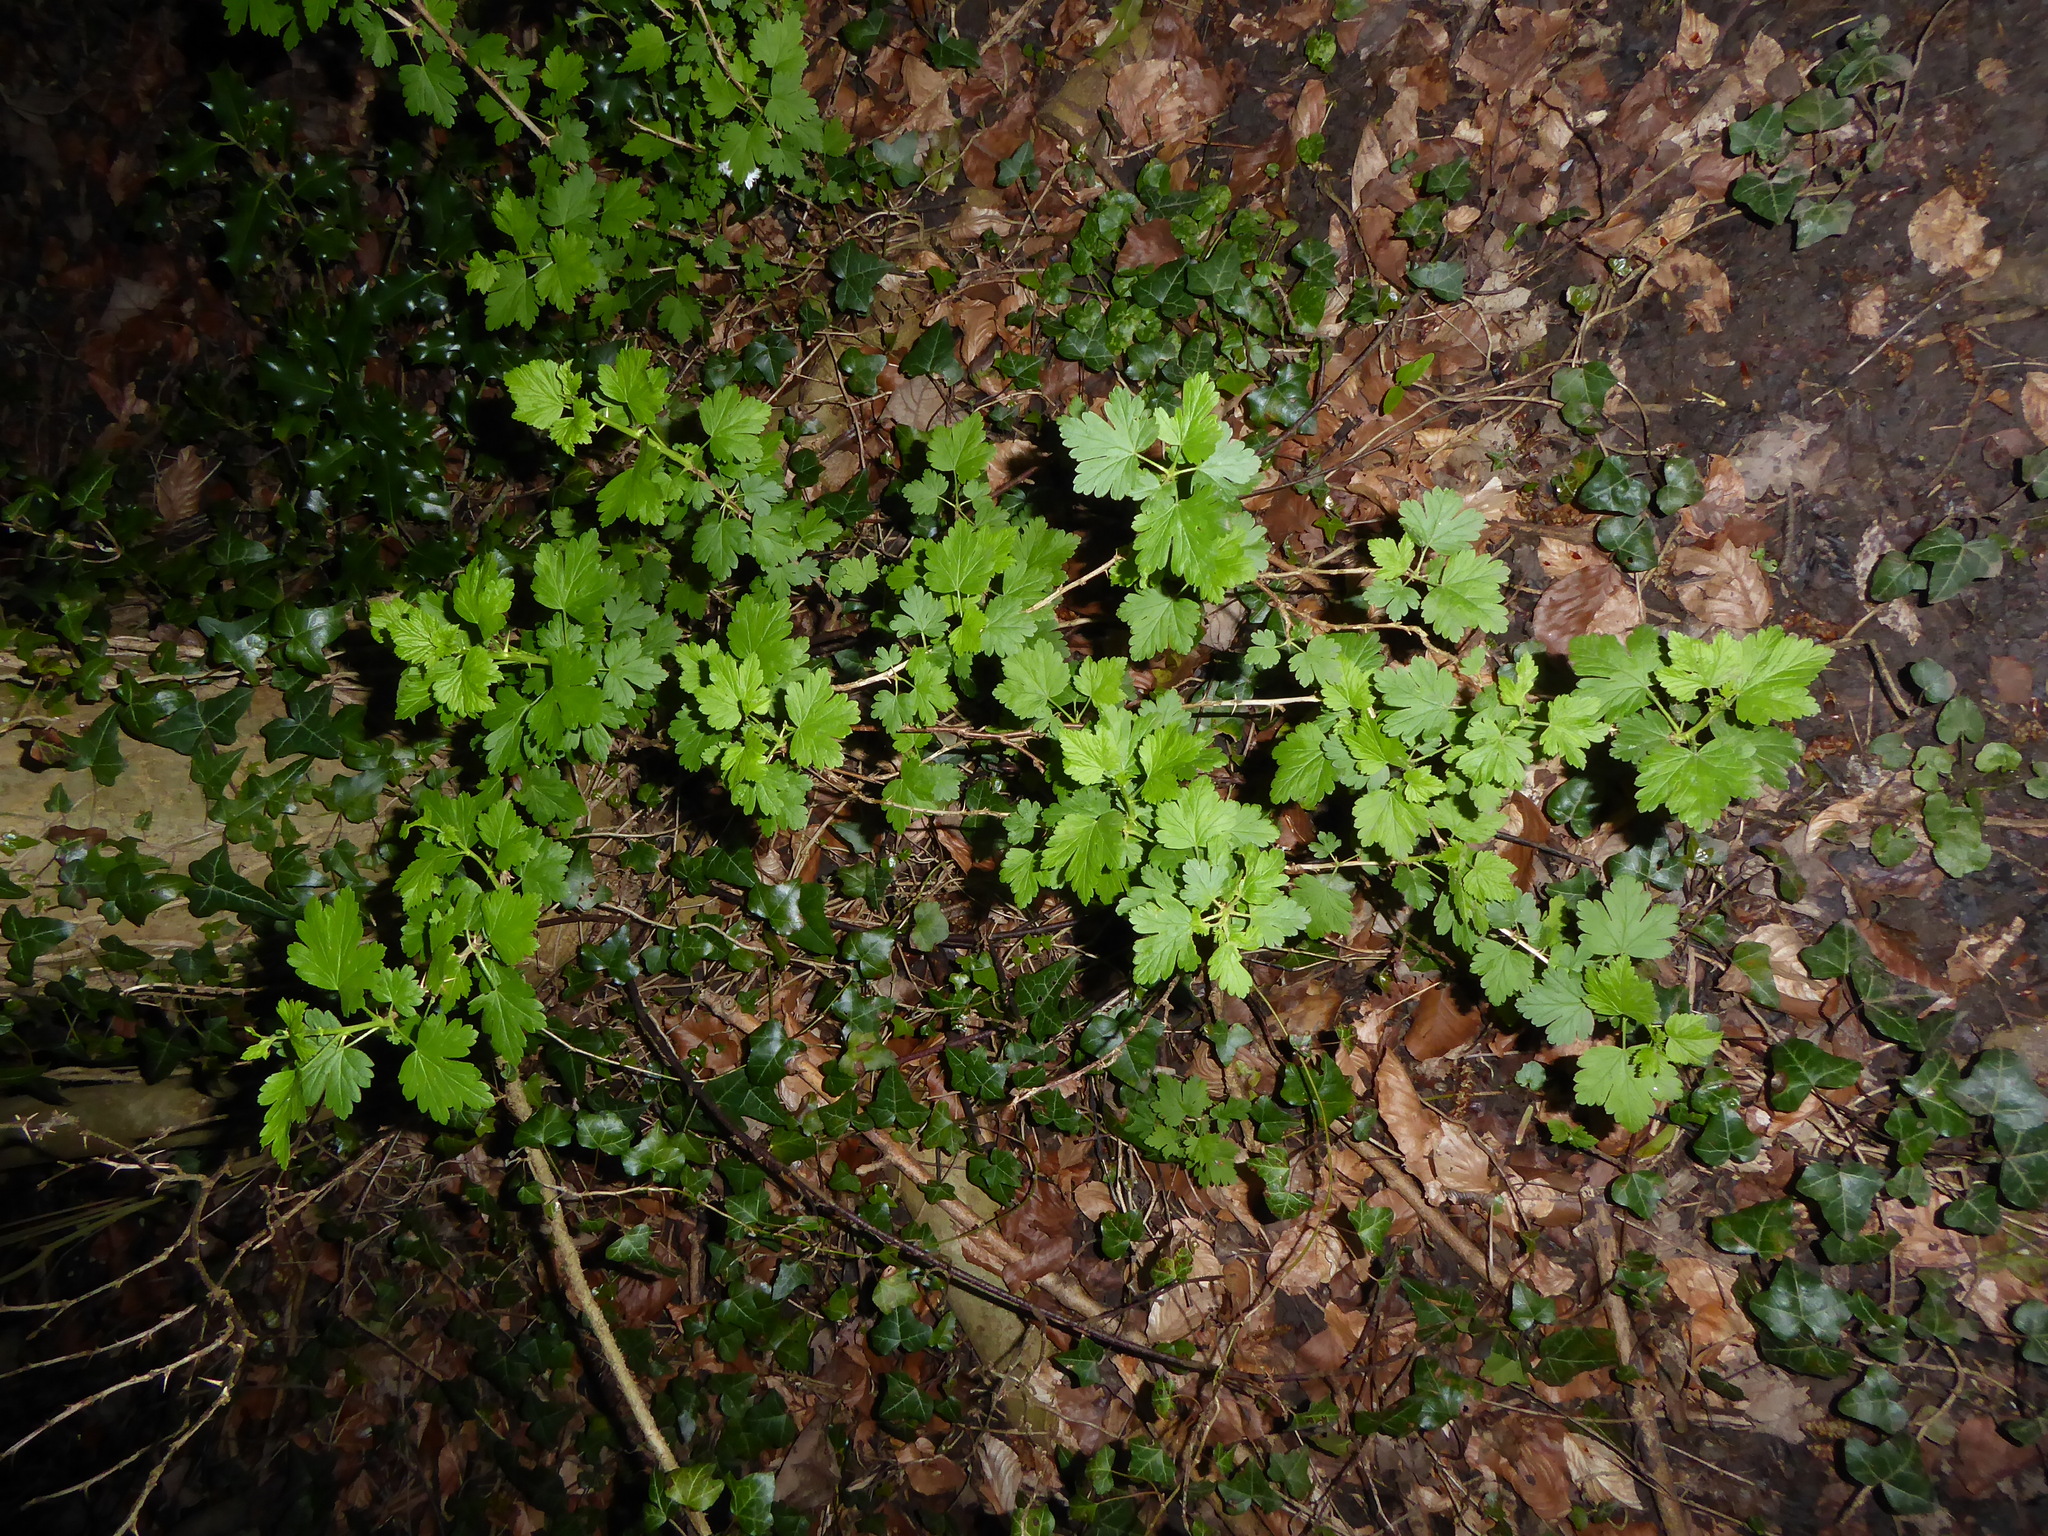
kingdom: Plantae
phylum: Tracheophyta
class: Magnoliopsida
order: Saxifragales
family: Grossulariaceae
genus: Ribes
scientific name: Ribes uva-crispa
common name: Gooseberry
